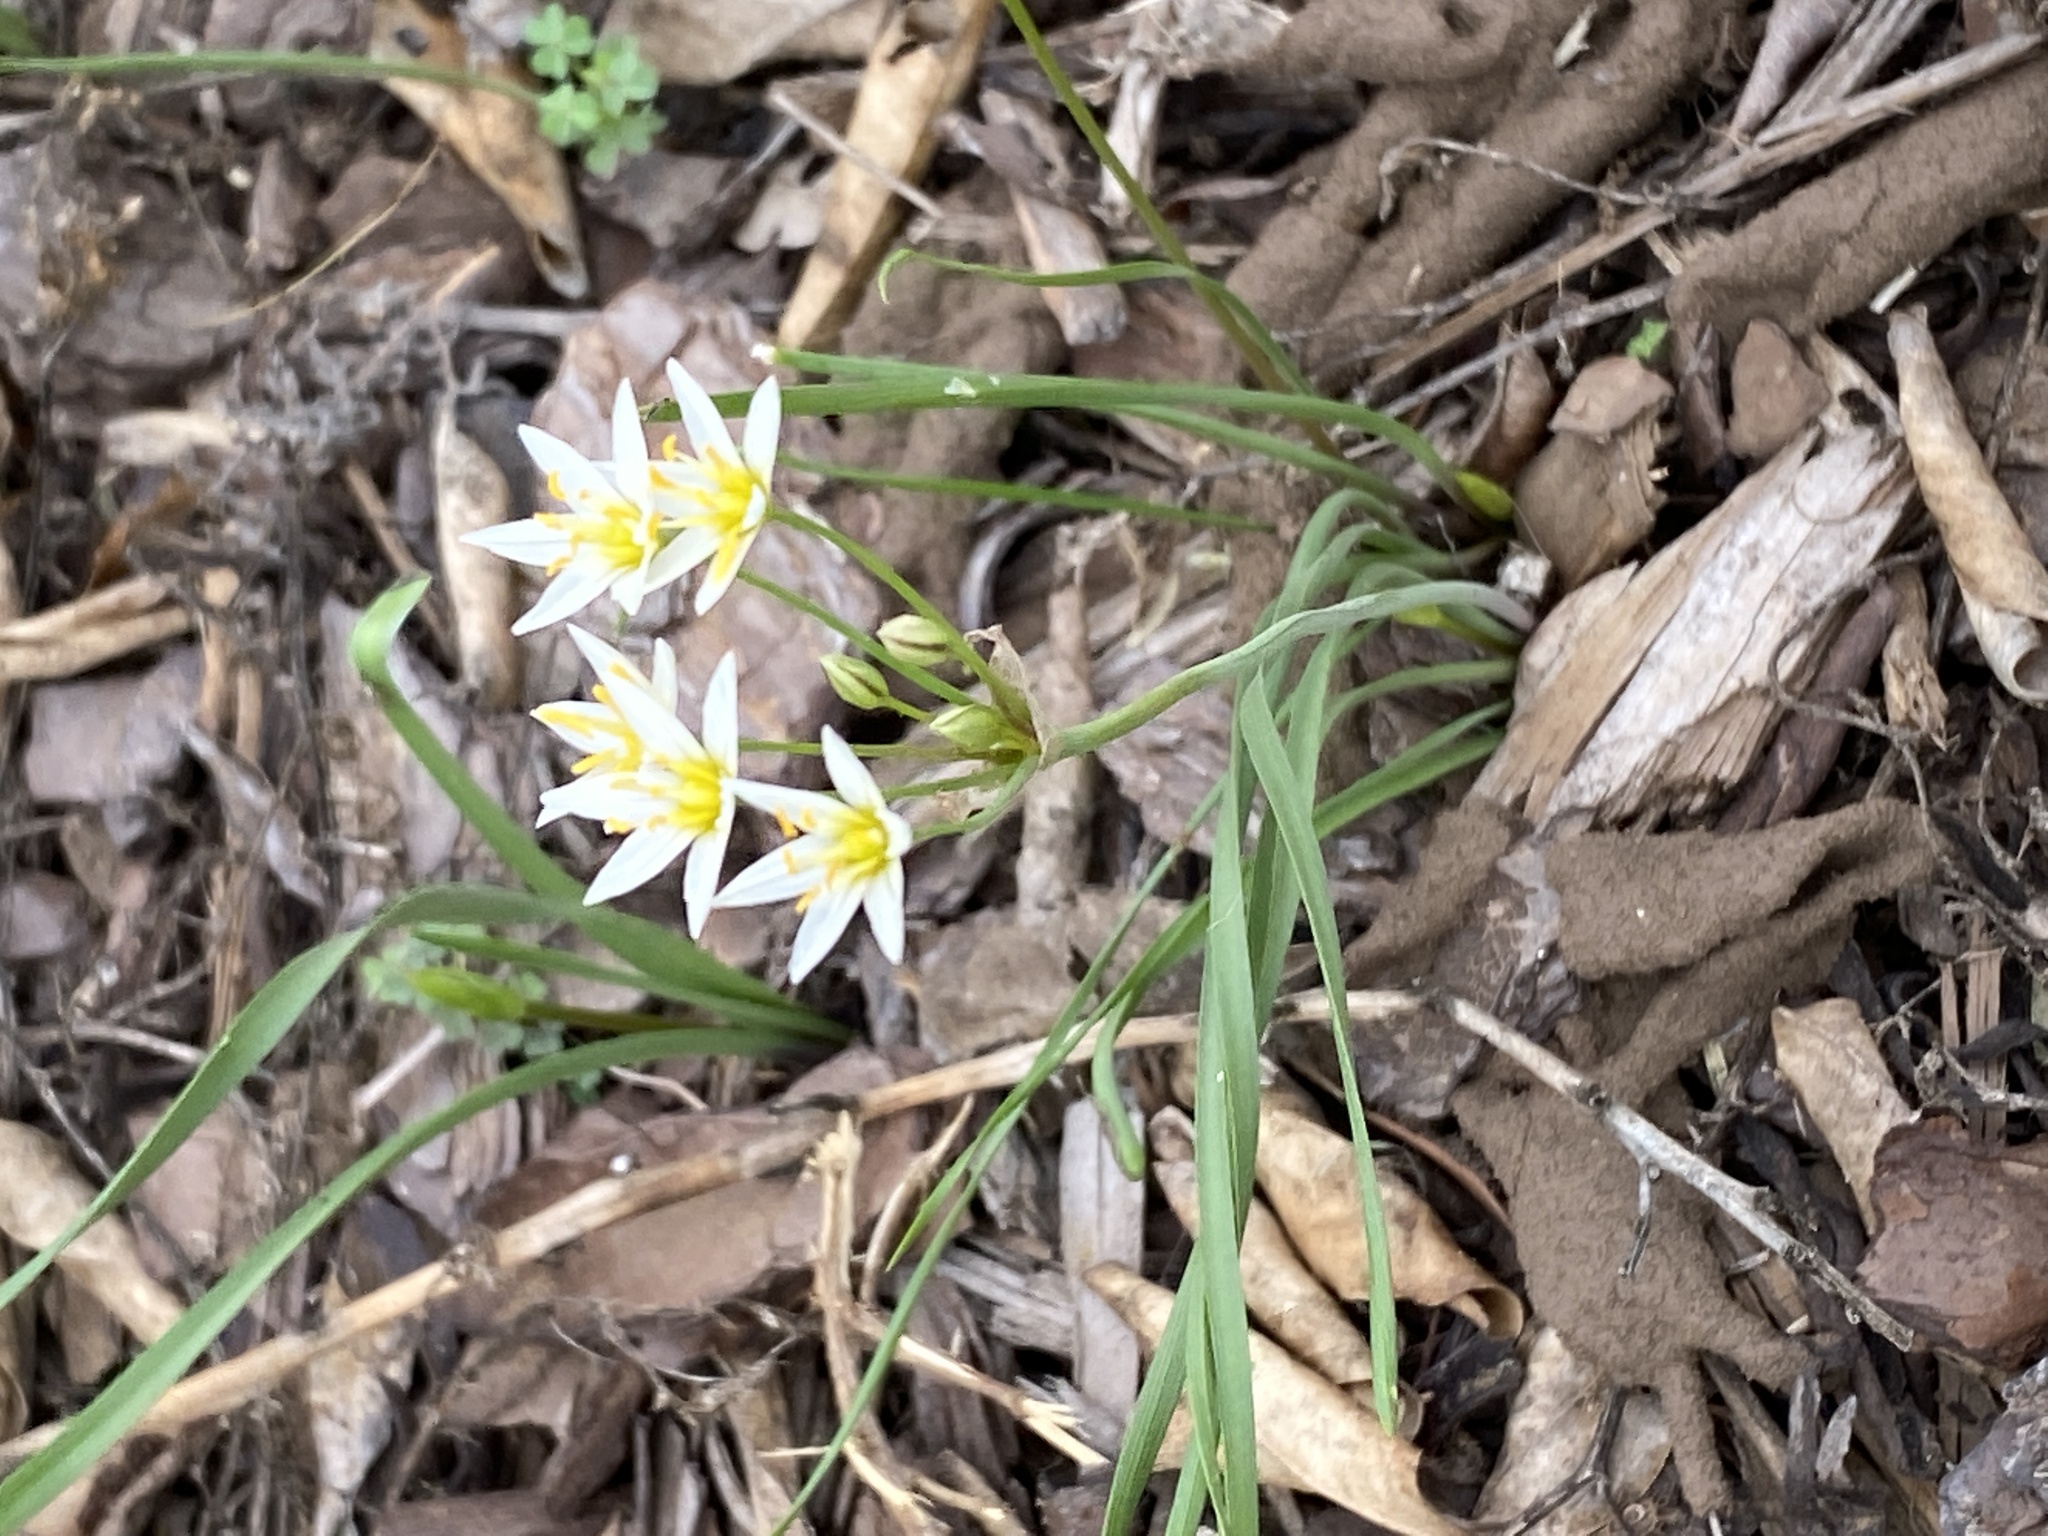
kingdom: Plantae
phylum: Tracheophyta
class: Liliopsida
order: Asparagales
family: Amaryllidaceae
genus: Nothoscordum
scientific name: Nothoscordum bivalve
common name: Crow-poison
